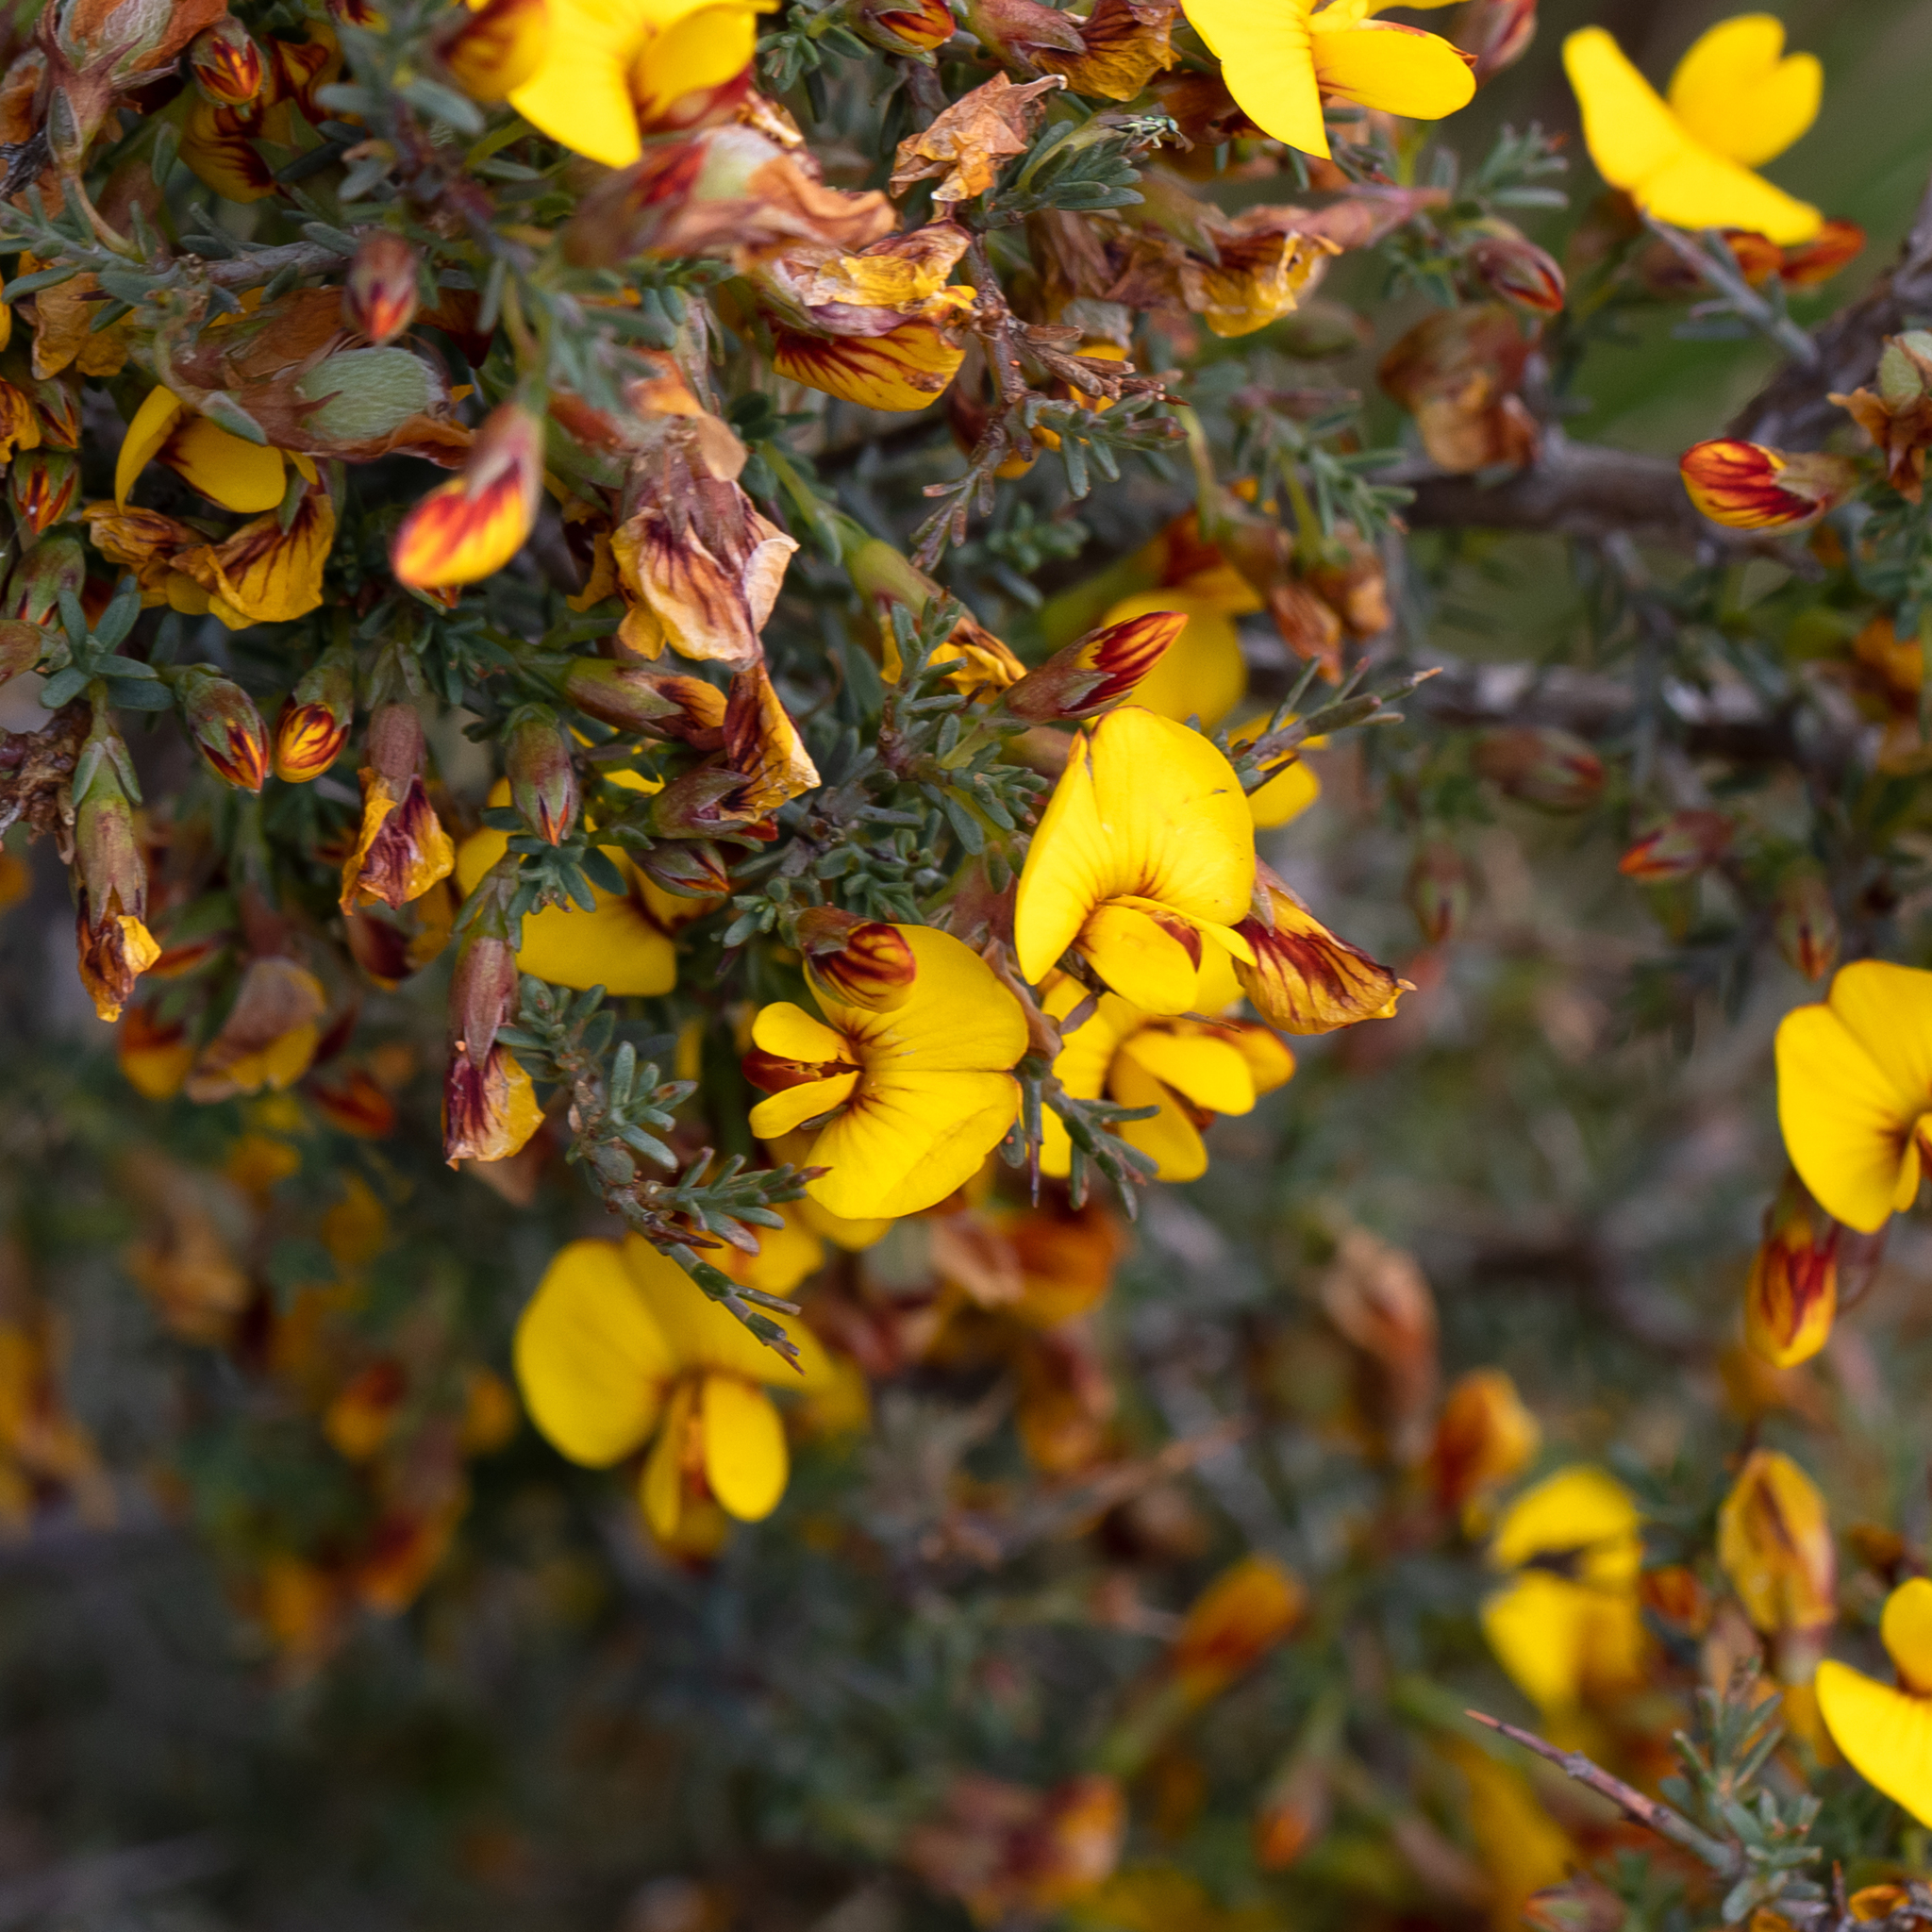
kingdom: Plantae
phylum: Tracheophyta
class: Magnoliopsida
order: Fabales
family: Fabaceae
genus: Eutaxia
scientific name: Eutaxia microphylla
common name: Mallee bush-pea
